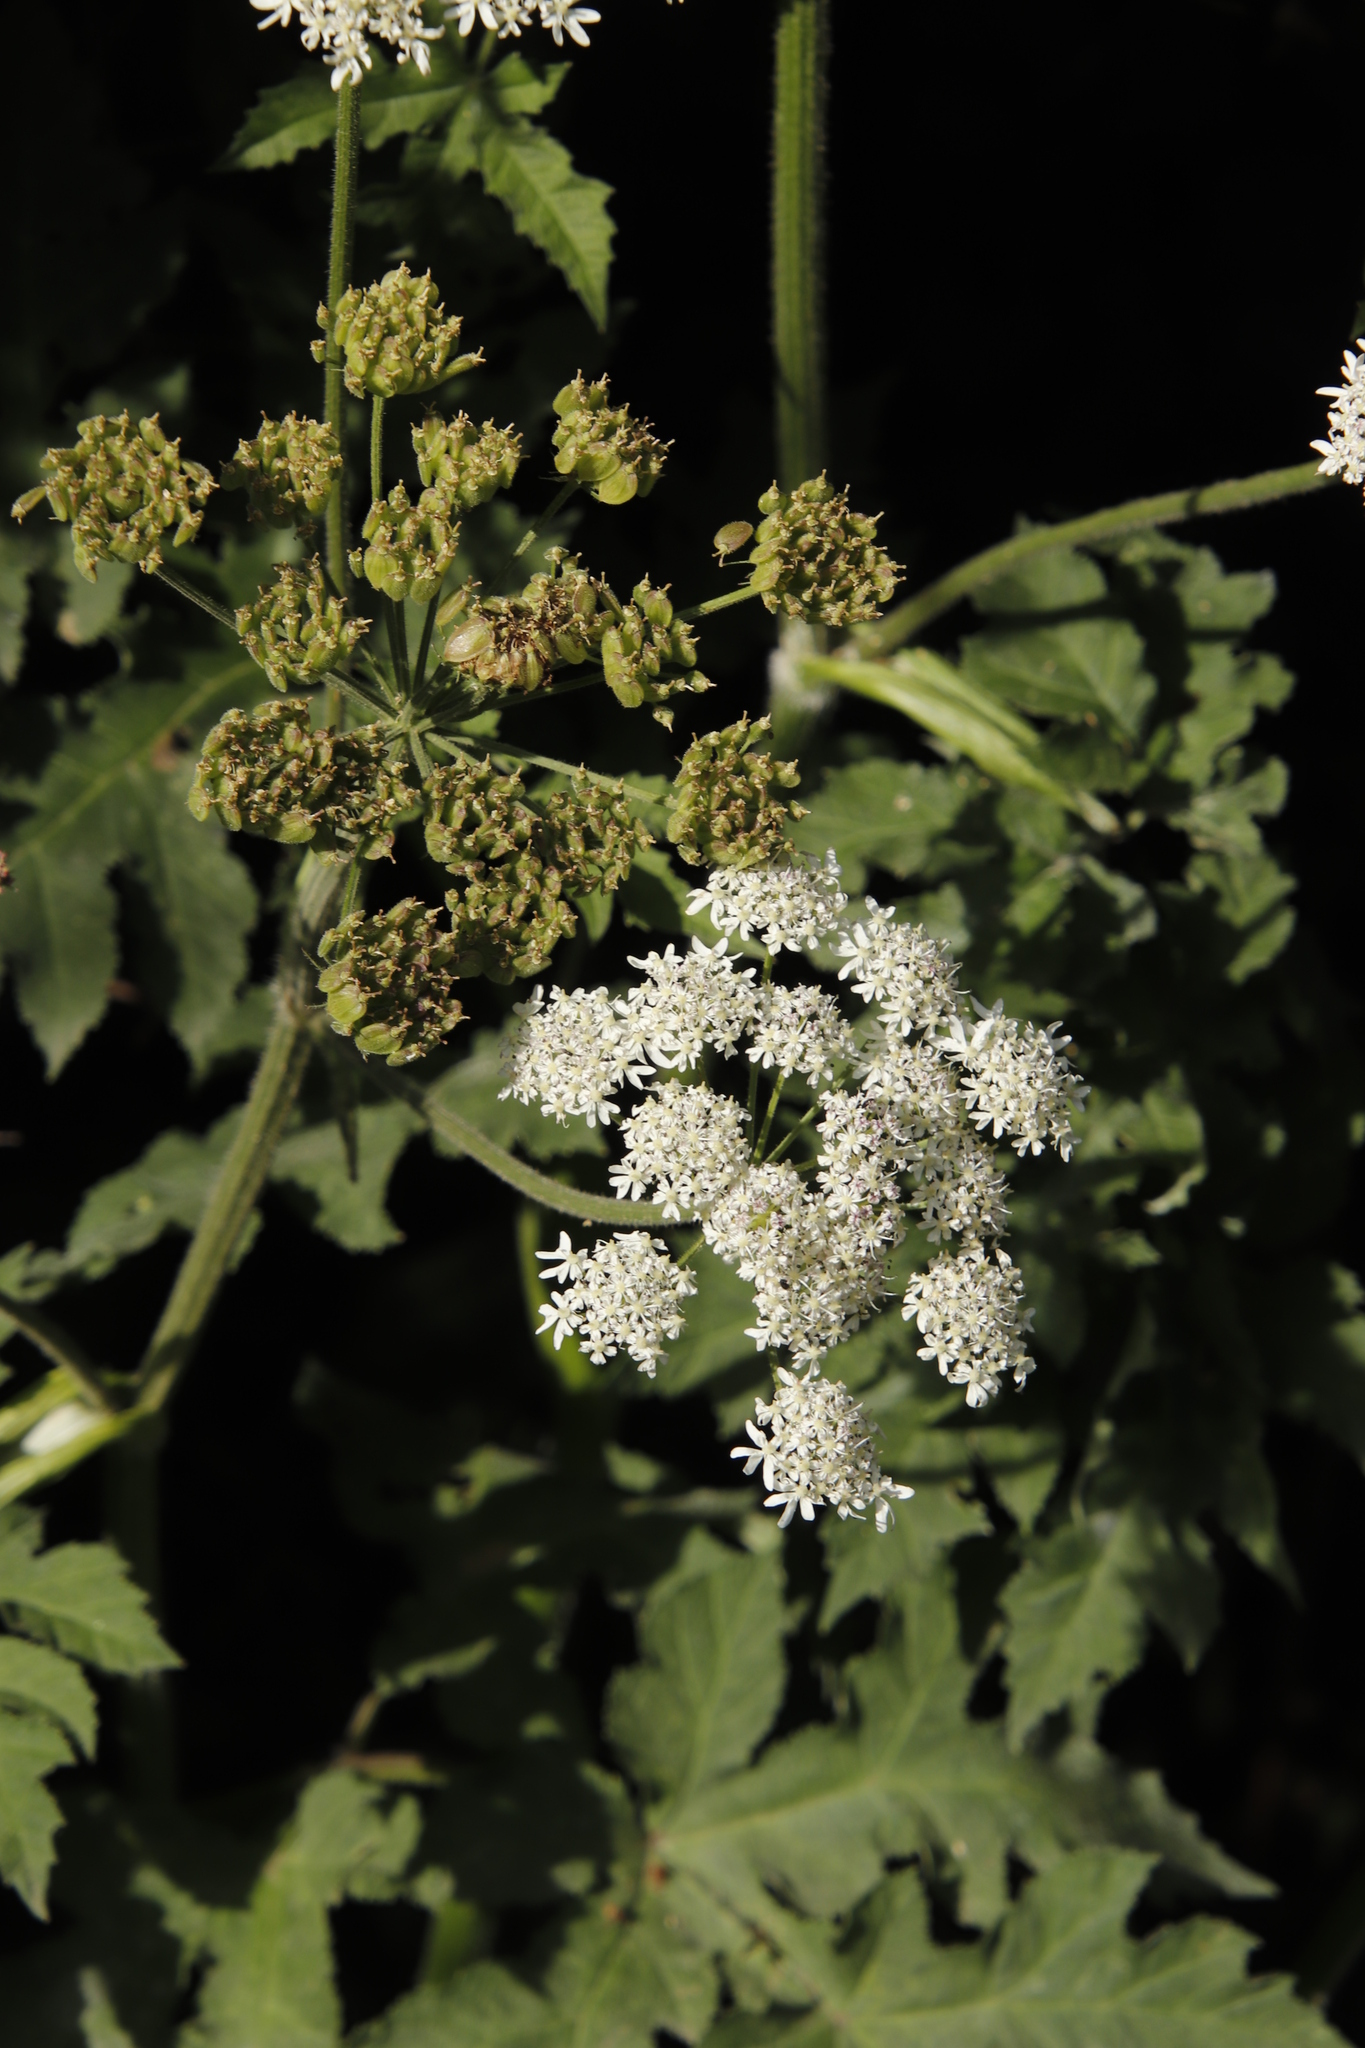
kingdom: Plantae
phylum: Tracheophyta
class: Magnoliopsida
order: Apiales
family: Apiaceae
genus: Heracleum
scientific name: Heracleum sphondylium
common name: Hogweed
